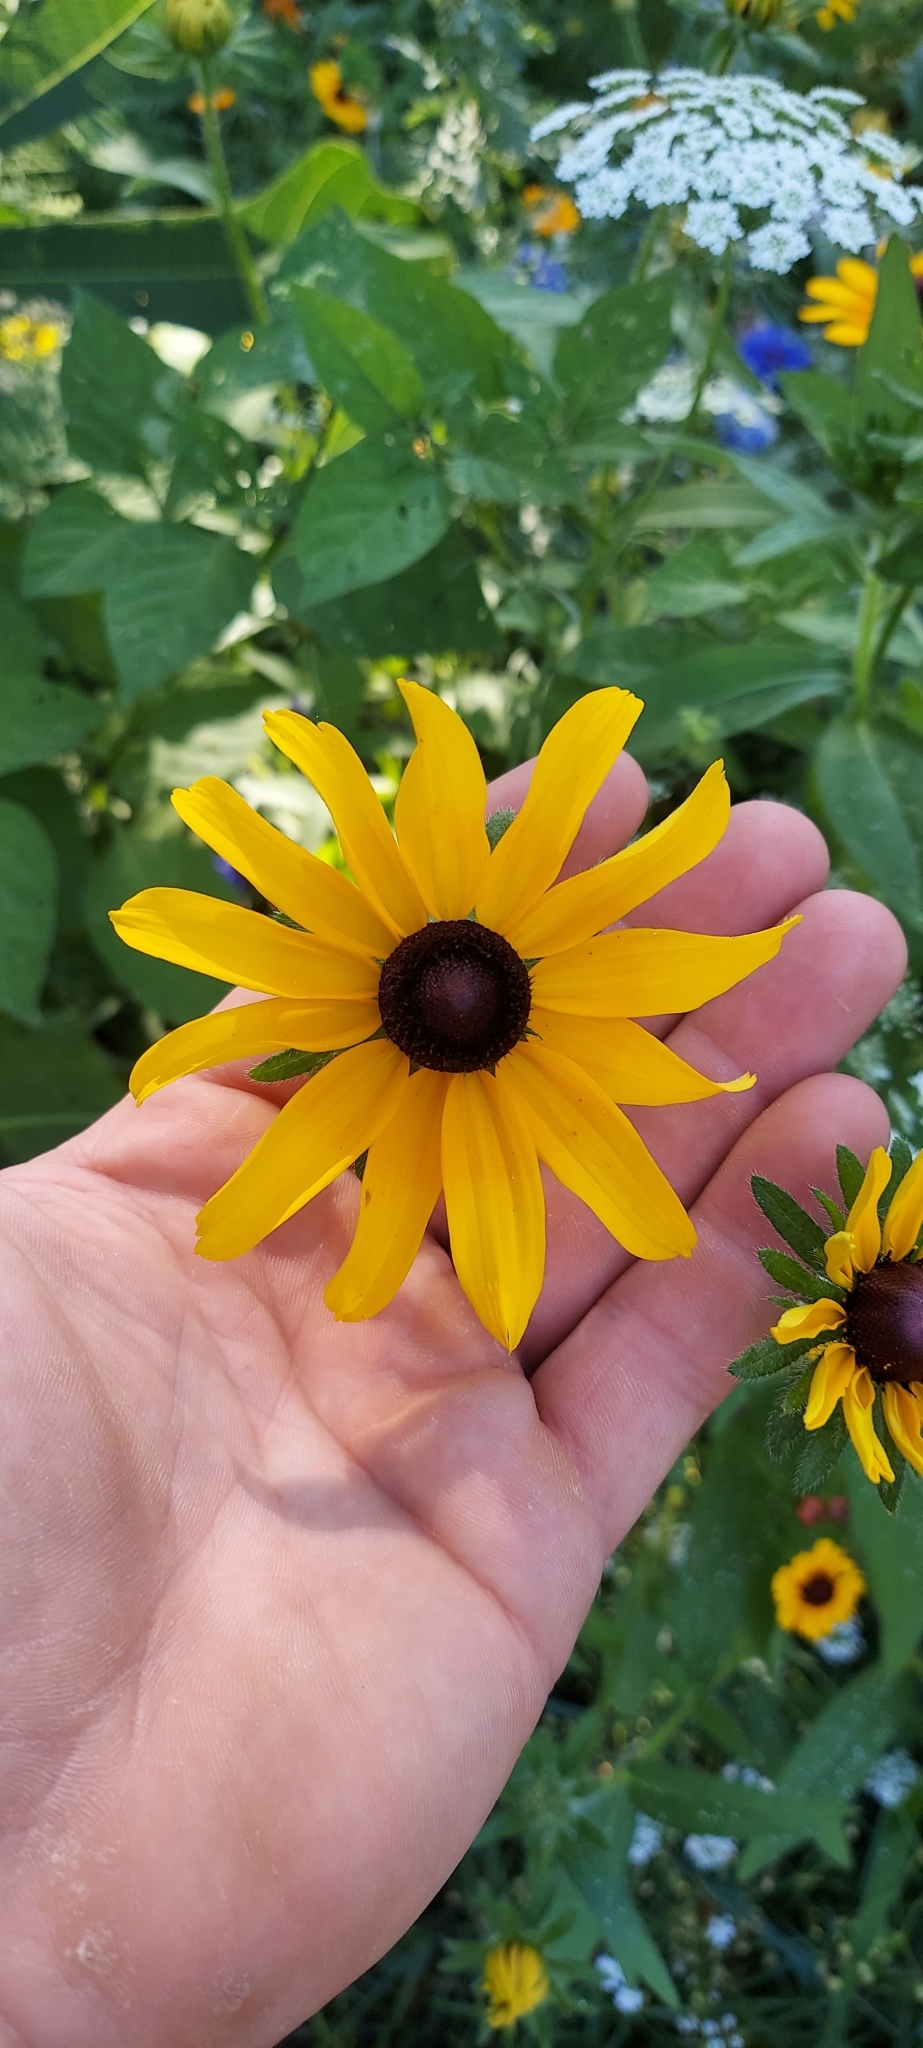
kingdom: Plantae
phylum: Tracheophyta
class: Magnoliopsida
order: Asterales
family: Asteraceae
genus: Rudbeckia
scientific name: Rudbeckia hirta
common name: Black-eyed-susan
